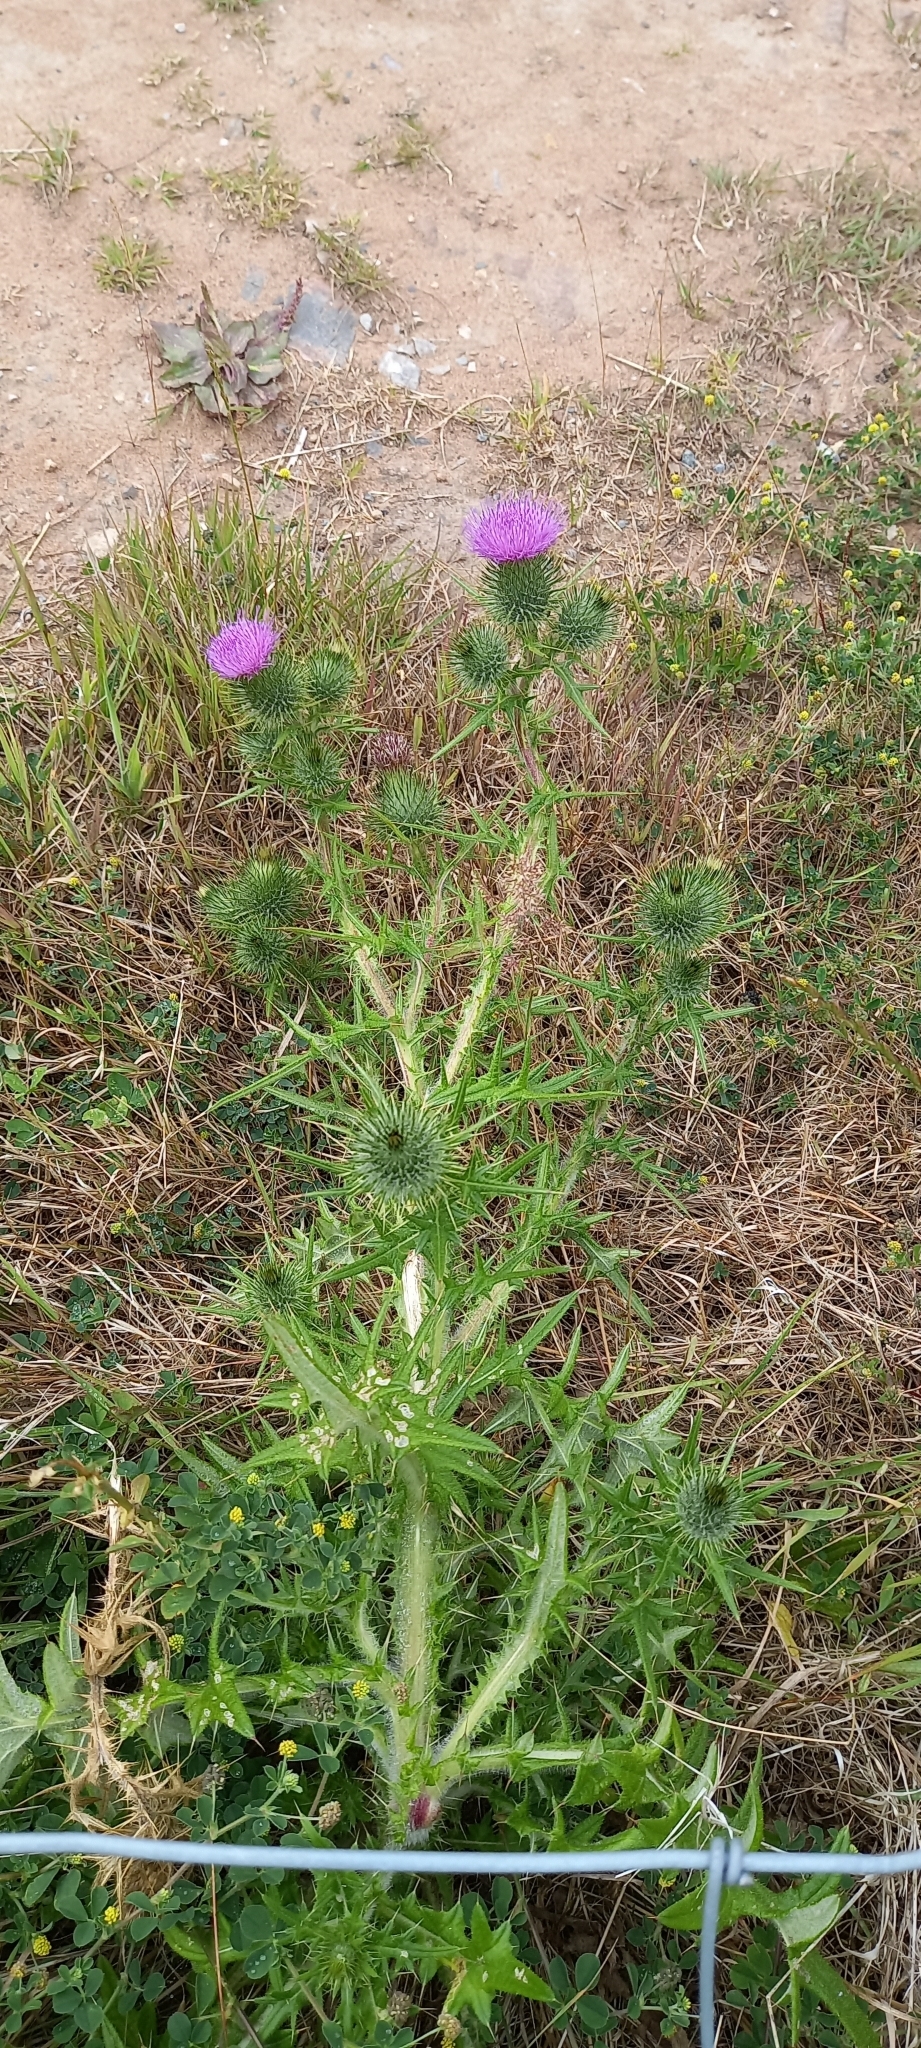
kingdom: Plantae
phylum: Tracheophyta
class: Magnoliopsida
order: Asterales
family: Asteraceae
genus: Cirsium
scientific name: Cirsium vulgare
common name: Bull thistle
